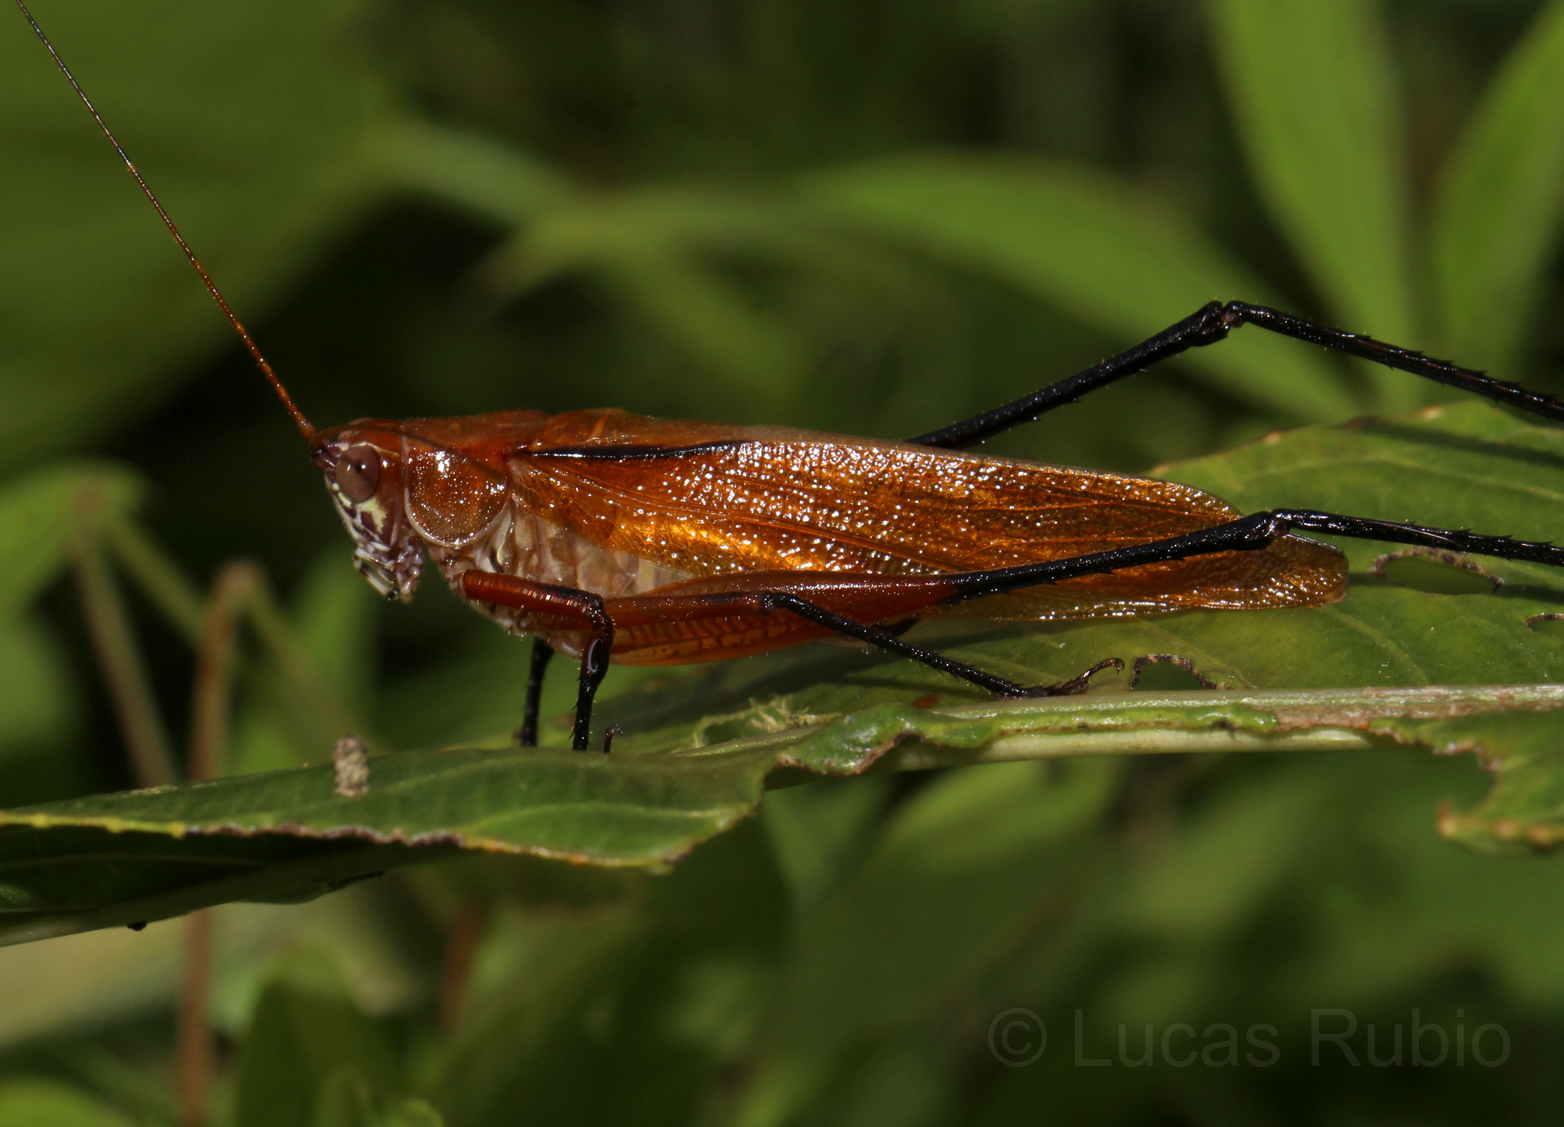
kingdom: Animalia
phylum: Arthropoda
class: Insecta
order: Orthoptera
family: Tettigoniidae
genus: Theudoria
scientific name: Theudoria melanocnemis
